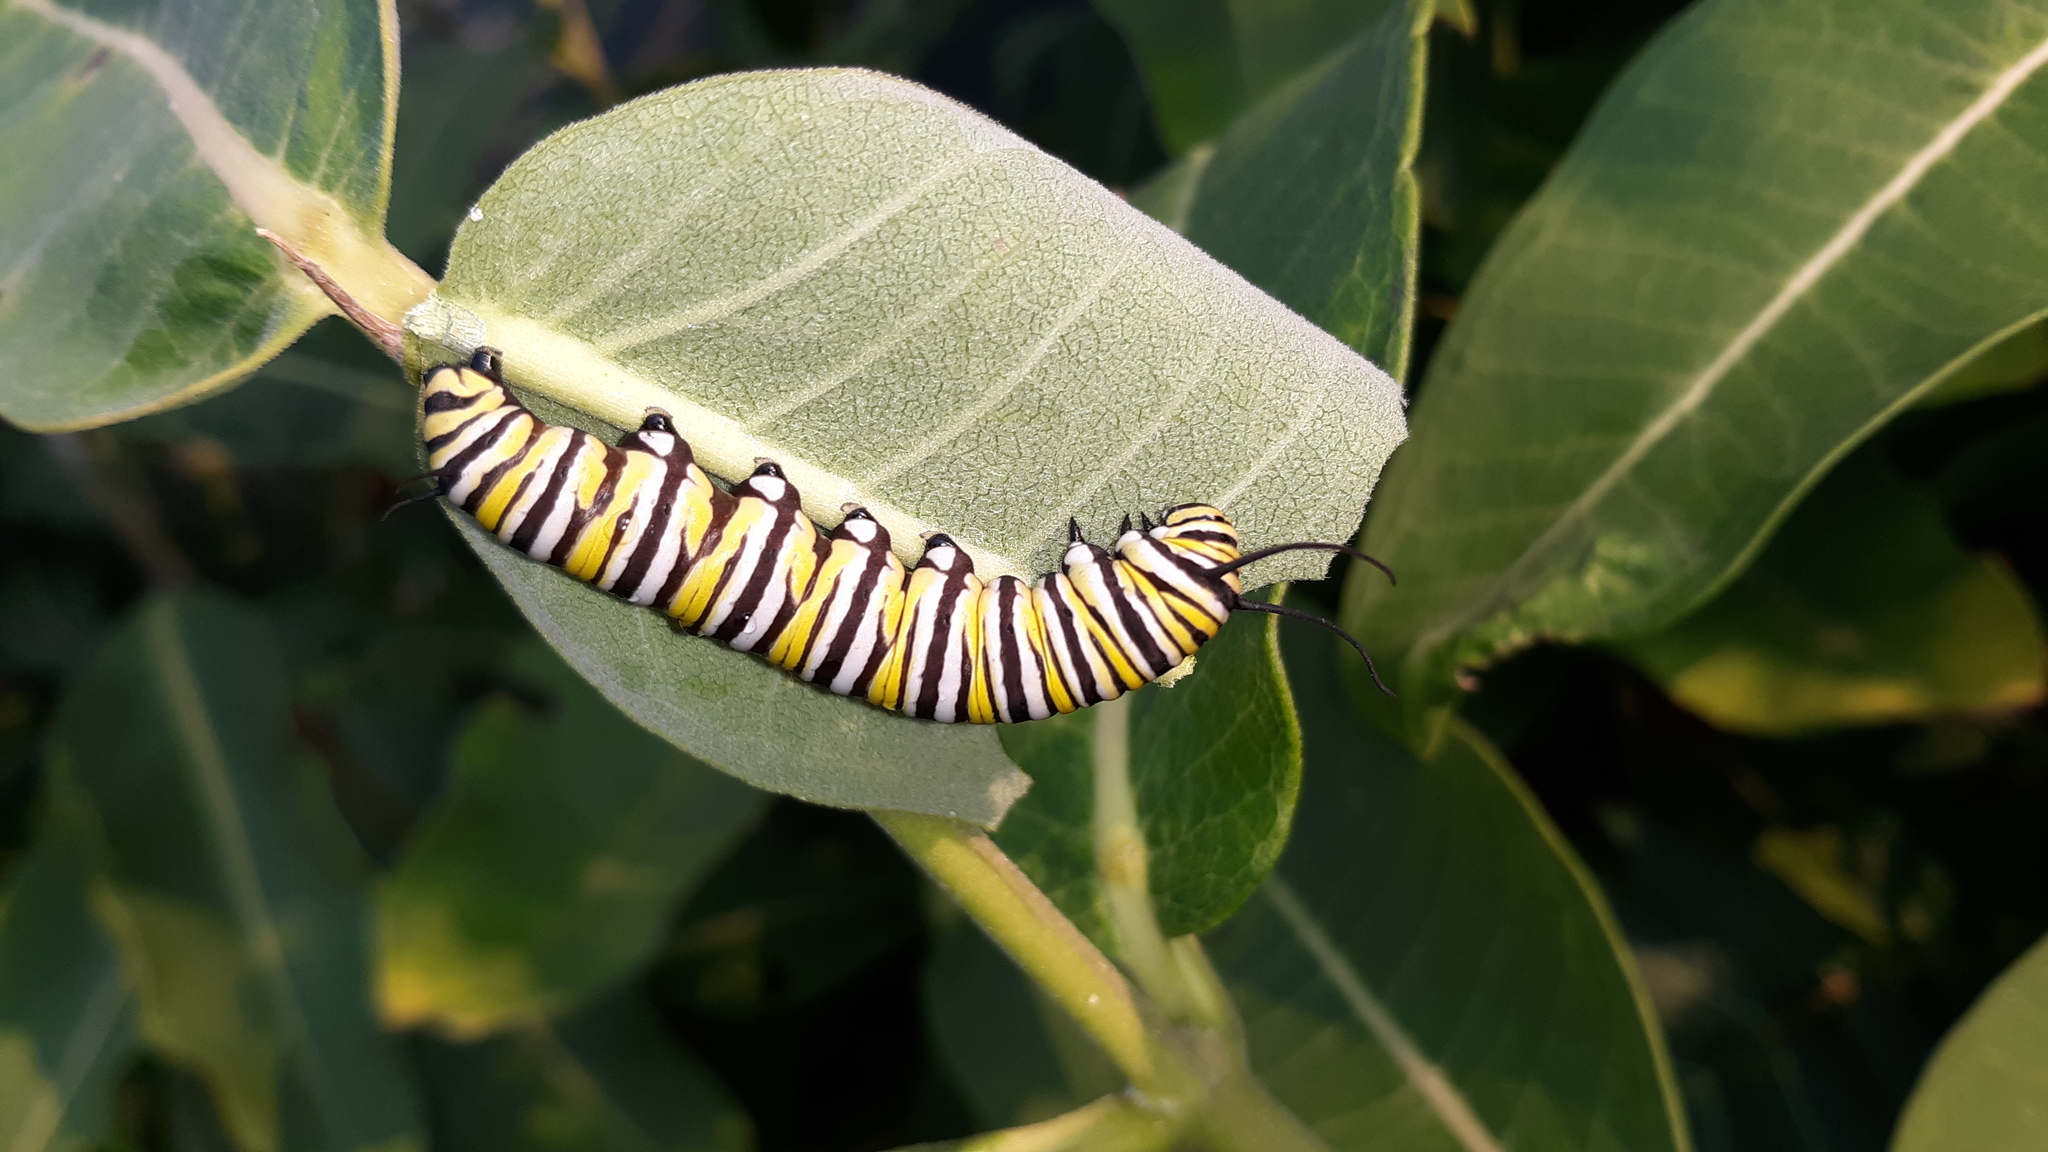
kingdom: Animalia
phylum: Arthropoda
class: Insecta
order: Lepidoptera
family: Nymphalidae
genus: Danaus
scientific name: Danaus plexippus
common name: Monarch
